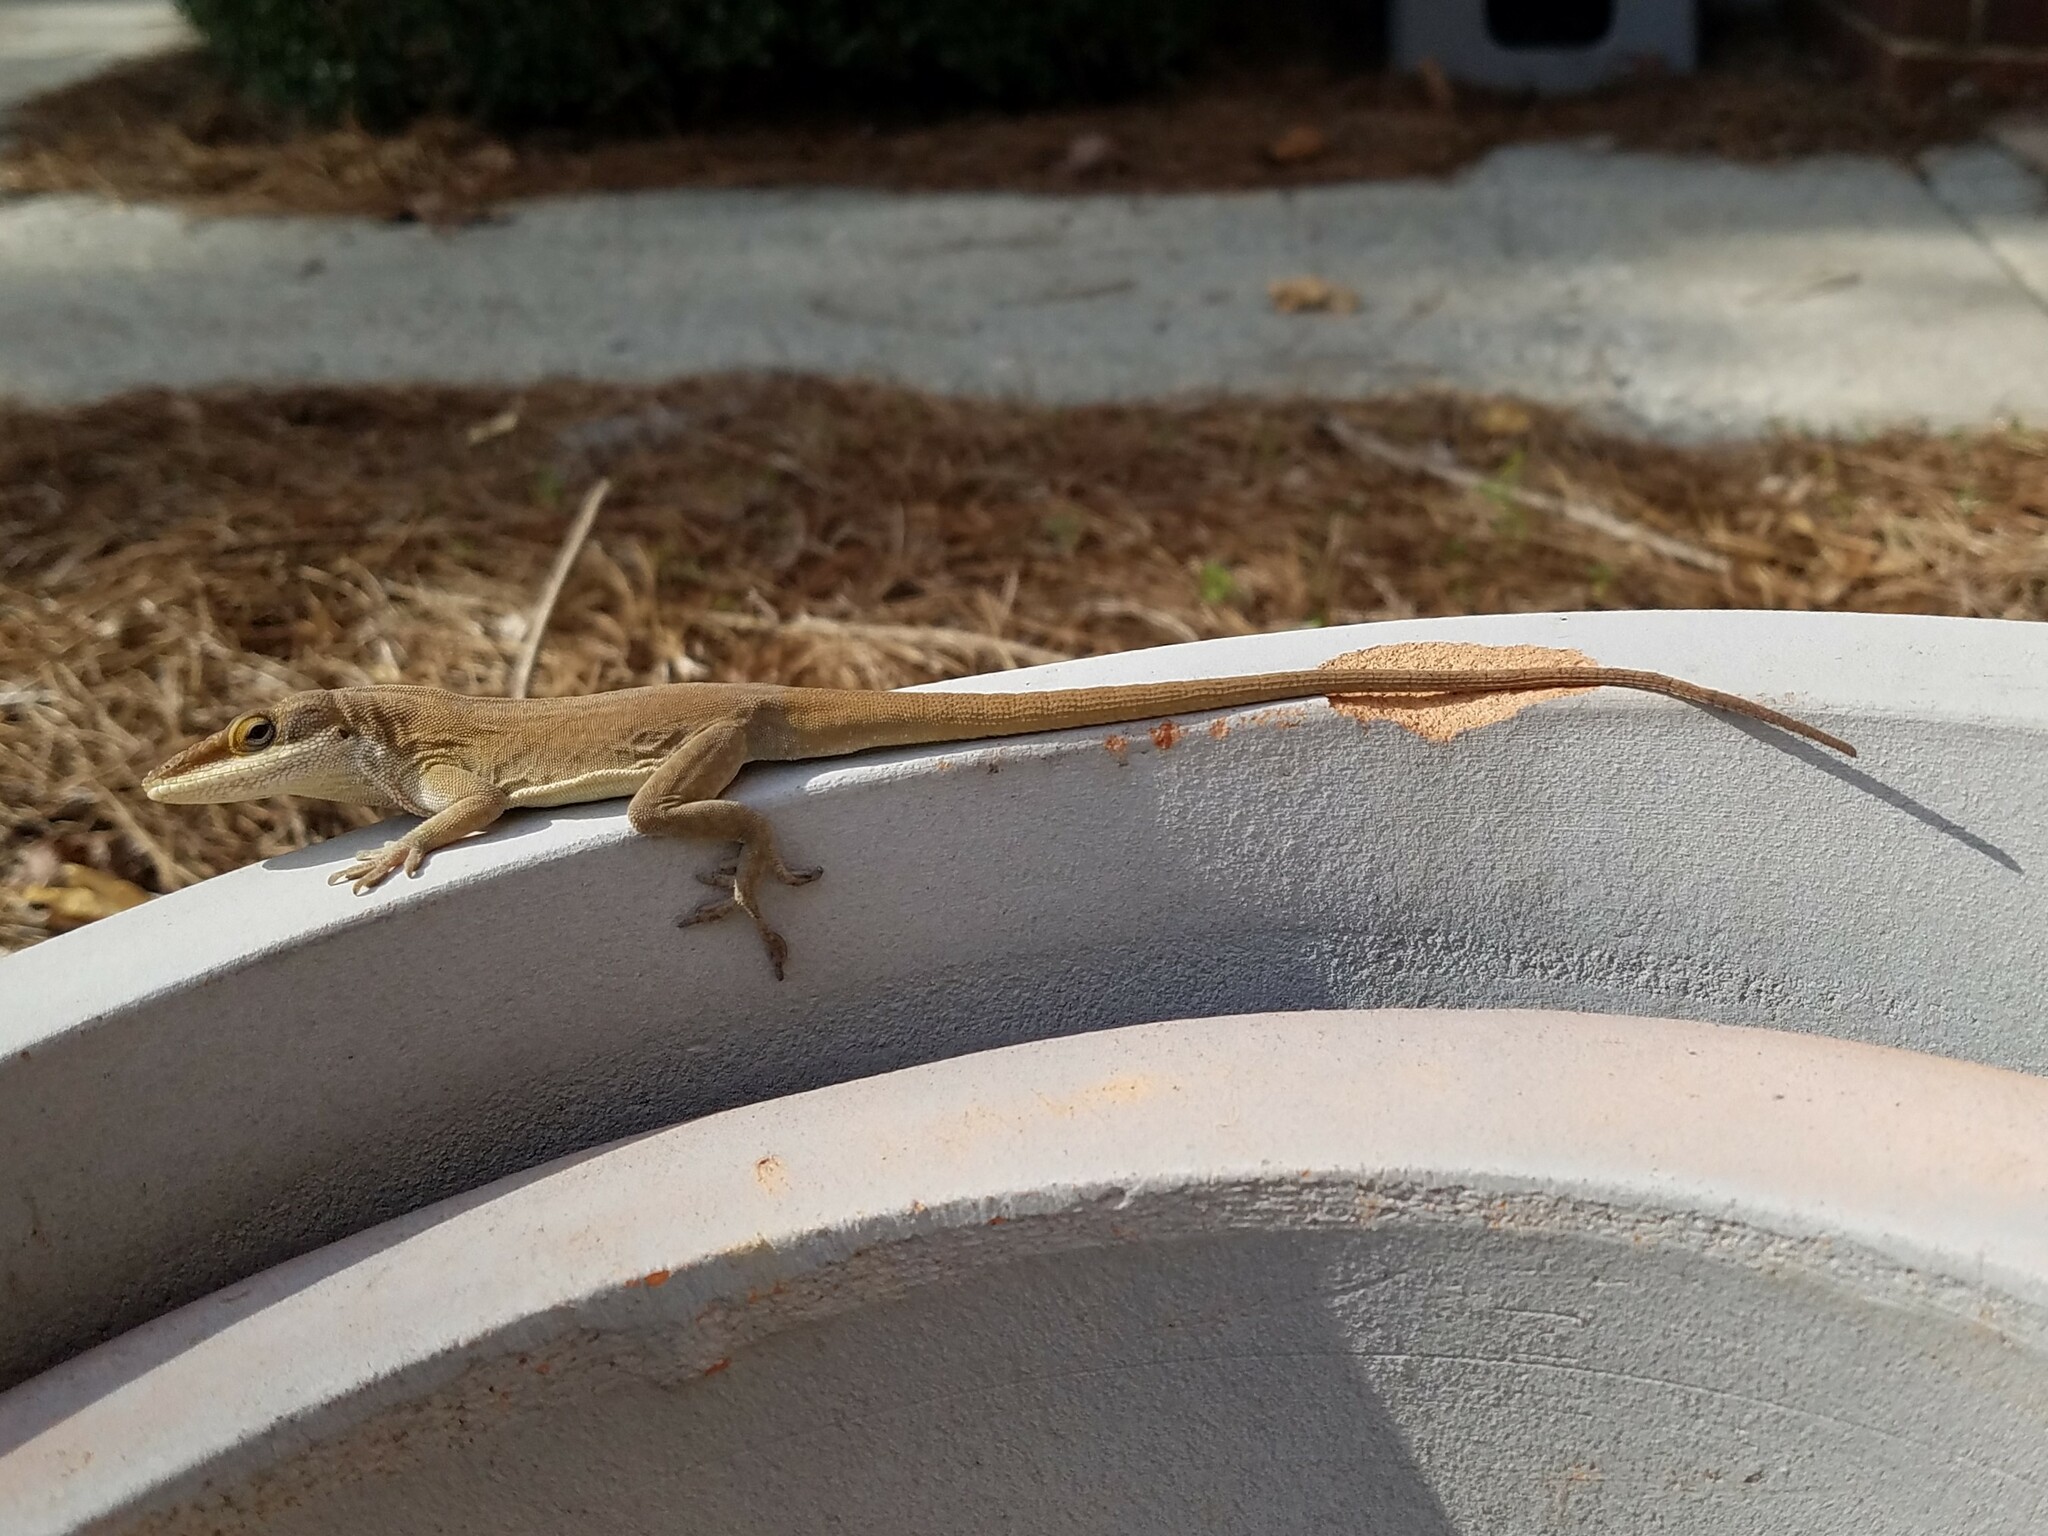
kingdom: Animalia
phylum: Chordata
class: Squamata
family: Dactyloidae
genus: Anolis
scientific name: Anolis carolinensis
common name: Green anole
